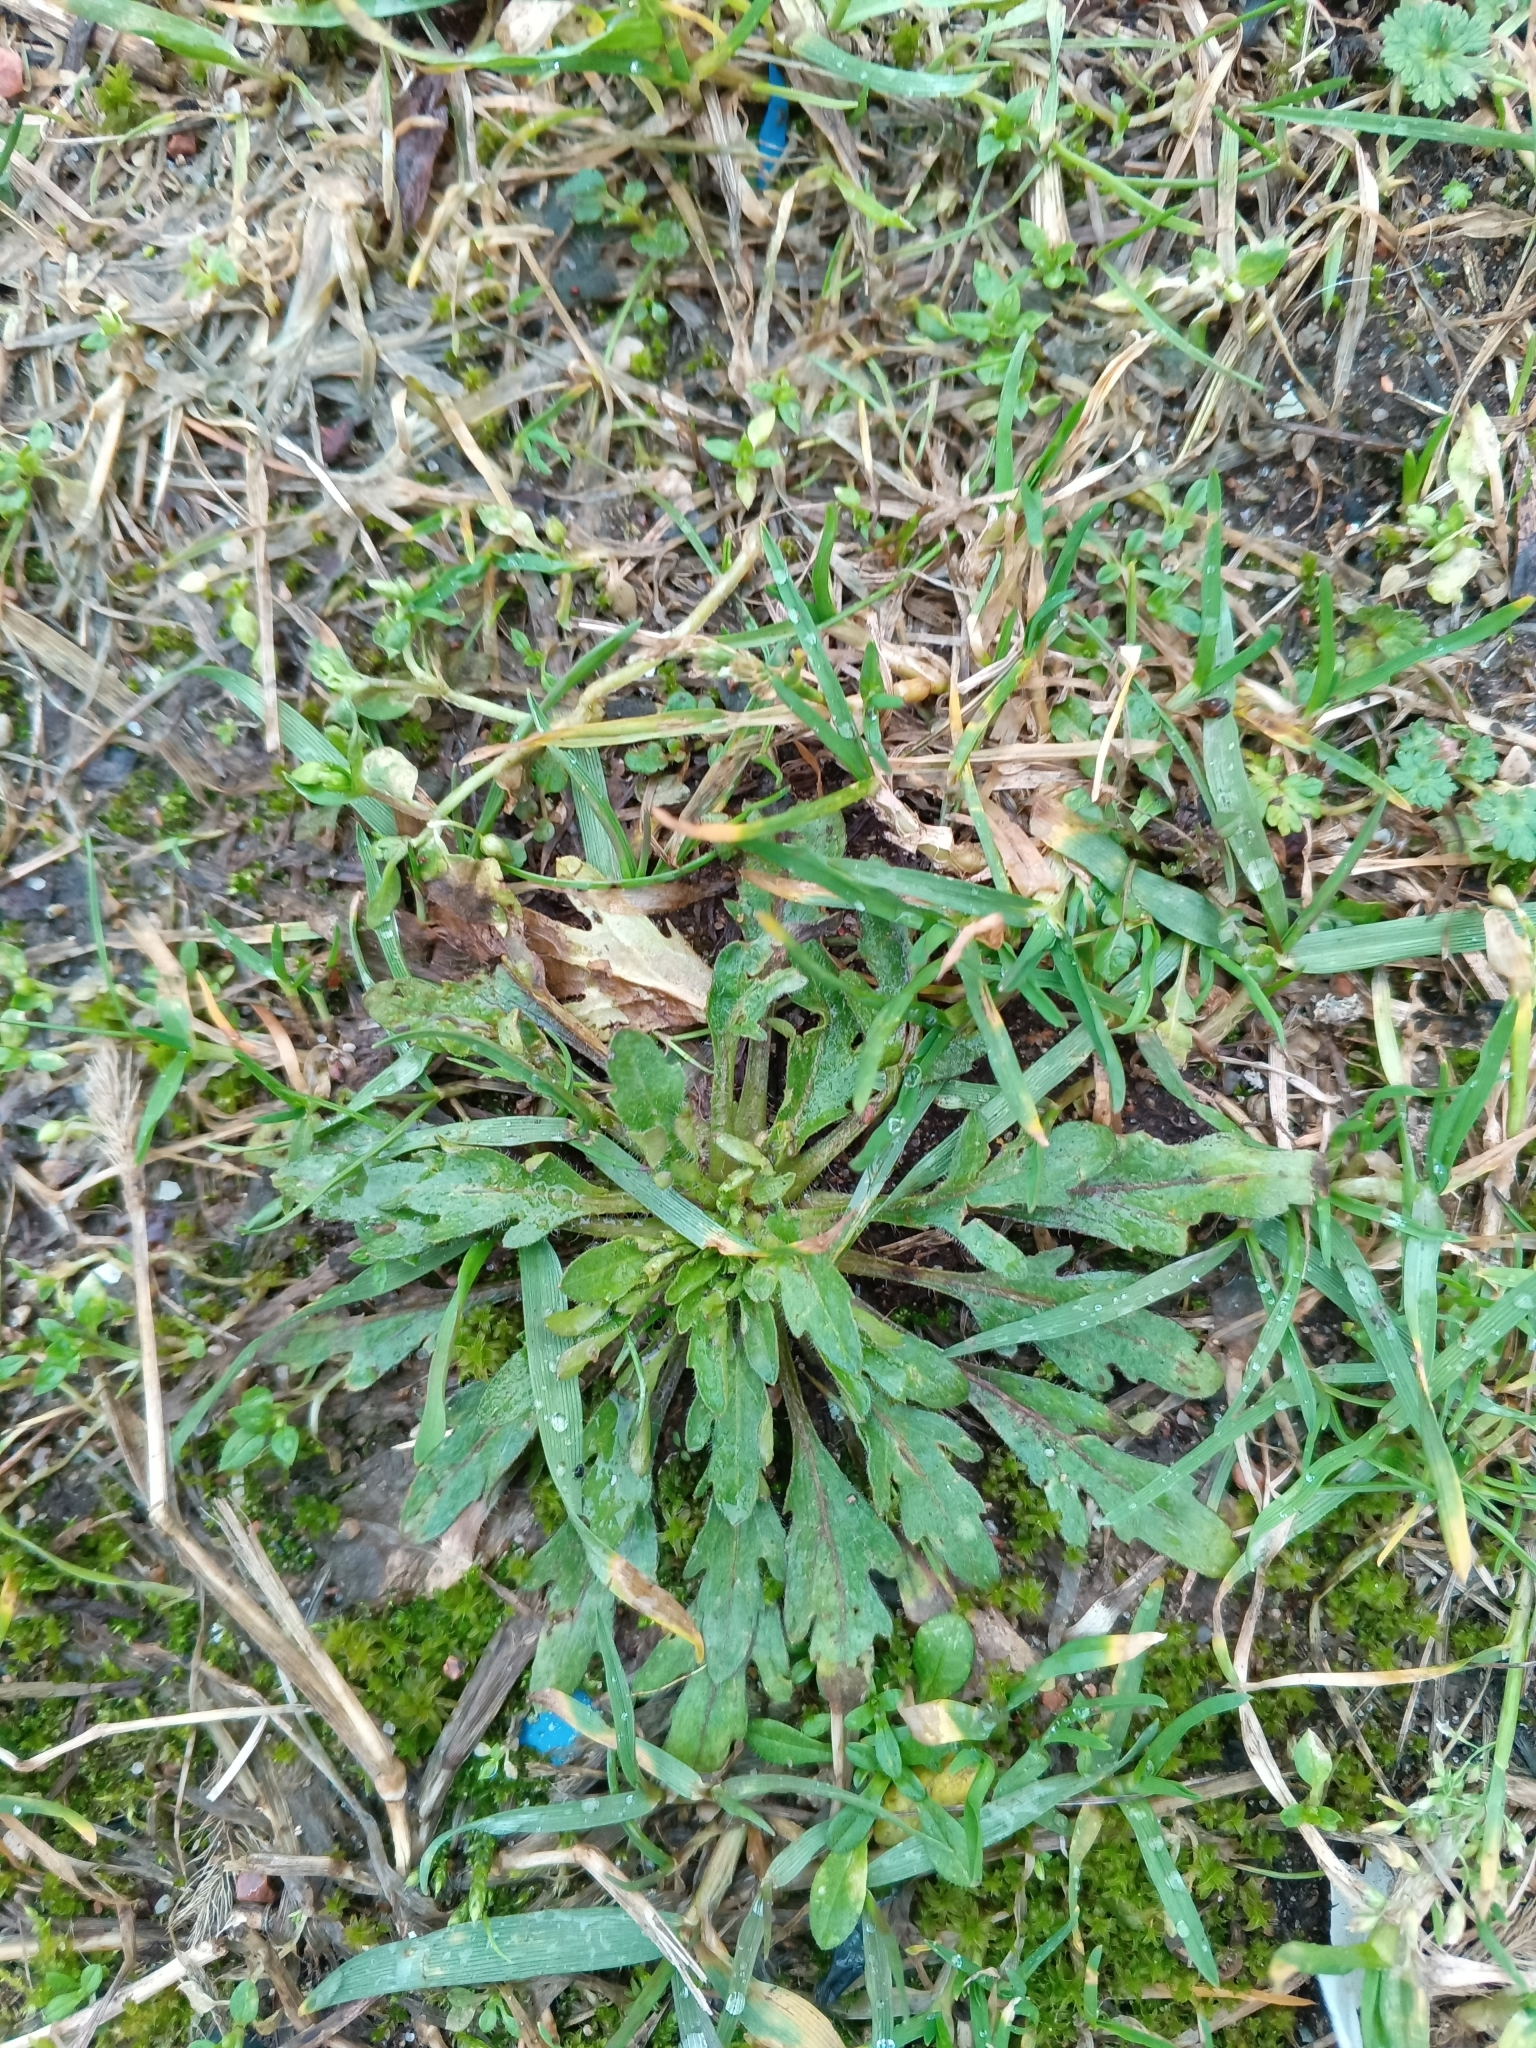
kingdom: Plantae
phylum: Tracheophyta
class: Magnoliopsida
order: Asterales
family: Asteraceae
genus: Erigeron
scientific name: Erigeron canadensis
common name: Canadian fleabane
